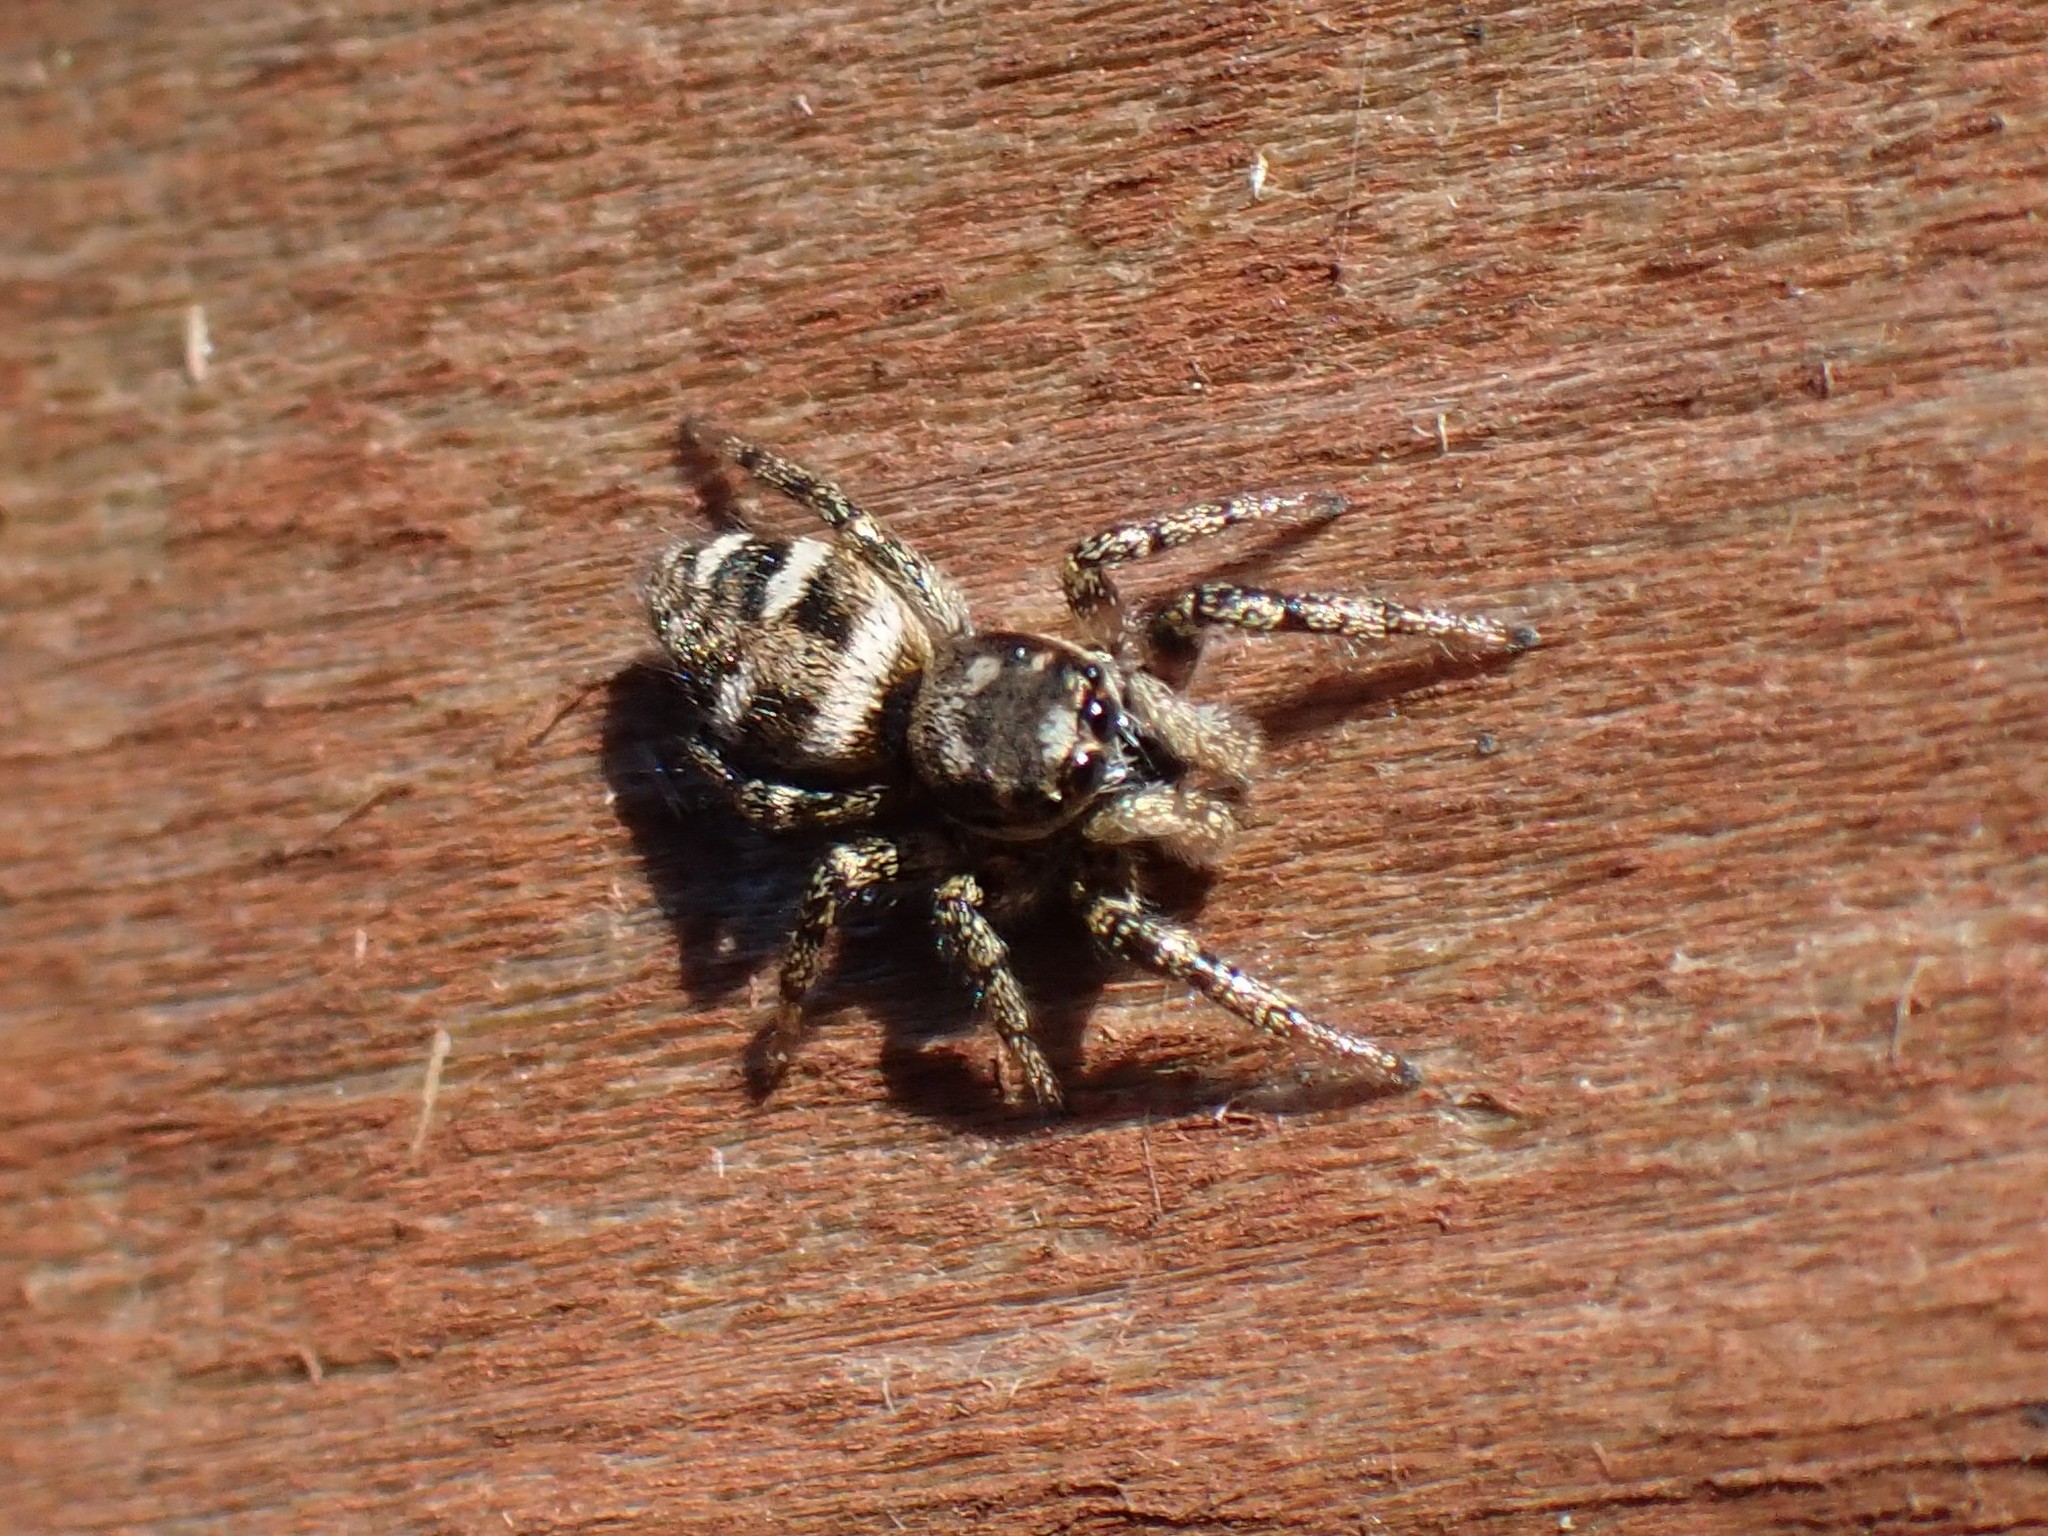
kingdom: Animalia
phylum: Arthropoda
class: Arachnida
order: Araneae
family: Salticidae
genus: Salticus
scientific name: Salticus scenicus
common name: Zebra jumper
